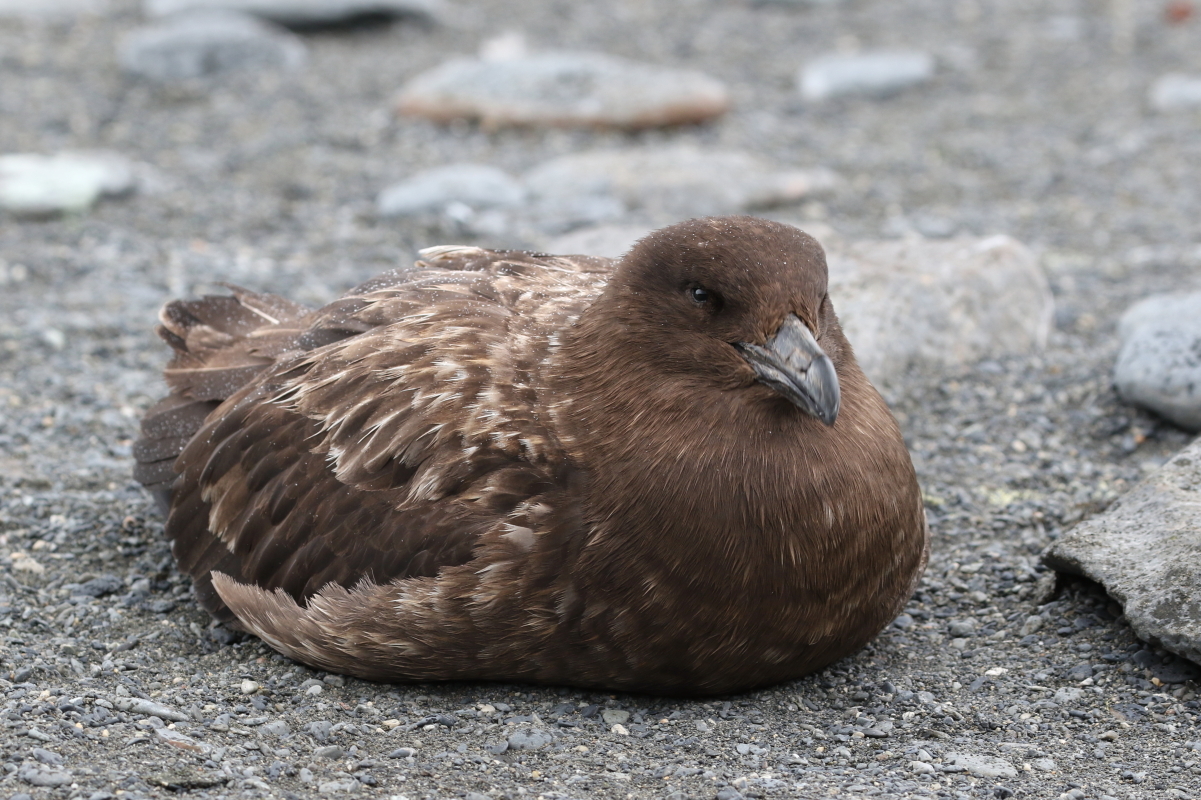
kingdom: Animalia
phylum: Chordata
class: Aves
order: Charadriiformes
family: Stercorariidae
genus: Stercorarius
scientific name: Stercorarius antarcticus
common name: Brown skua
